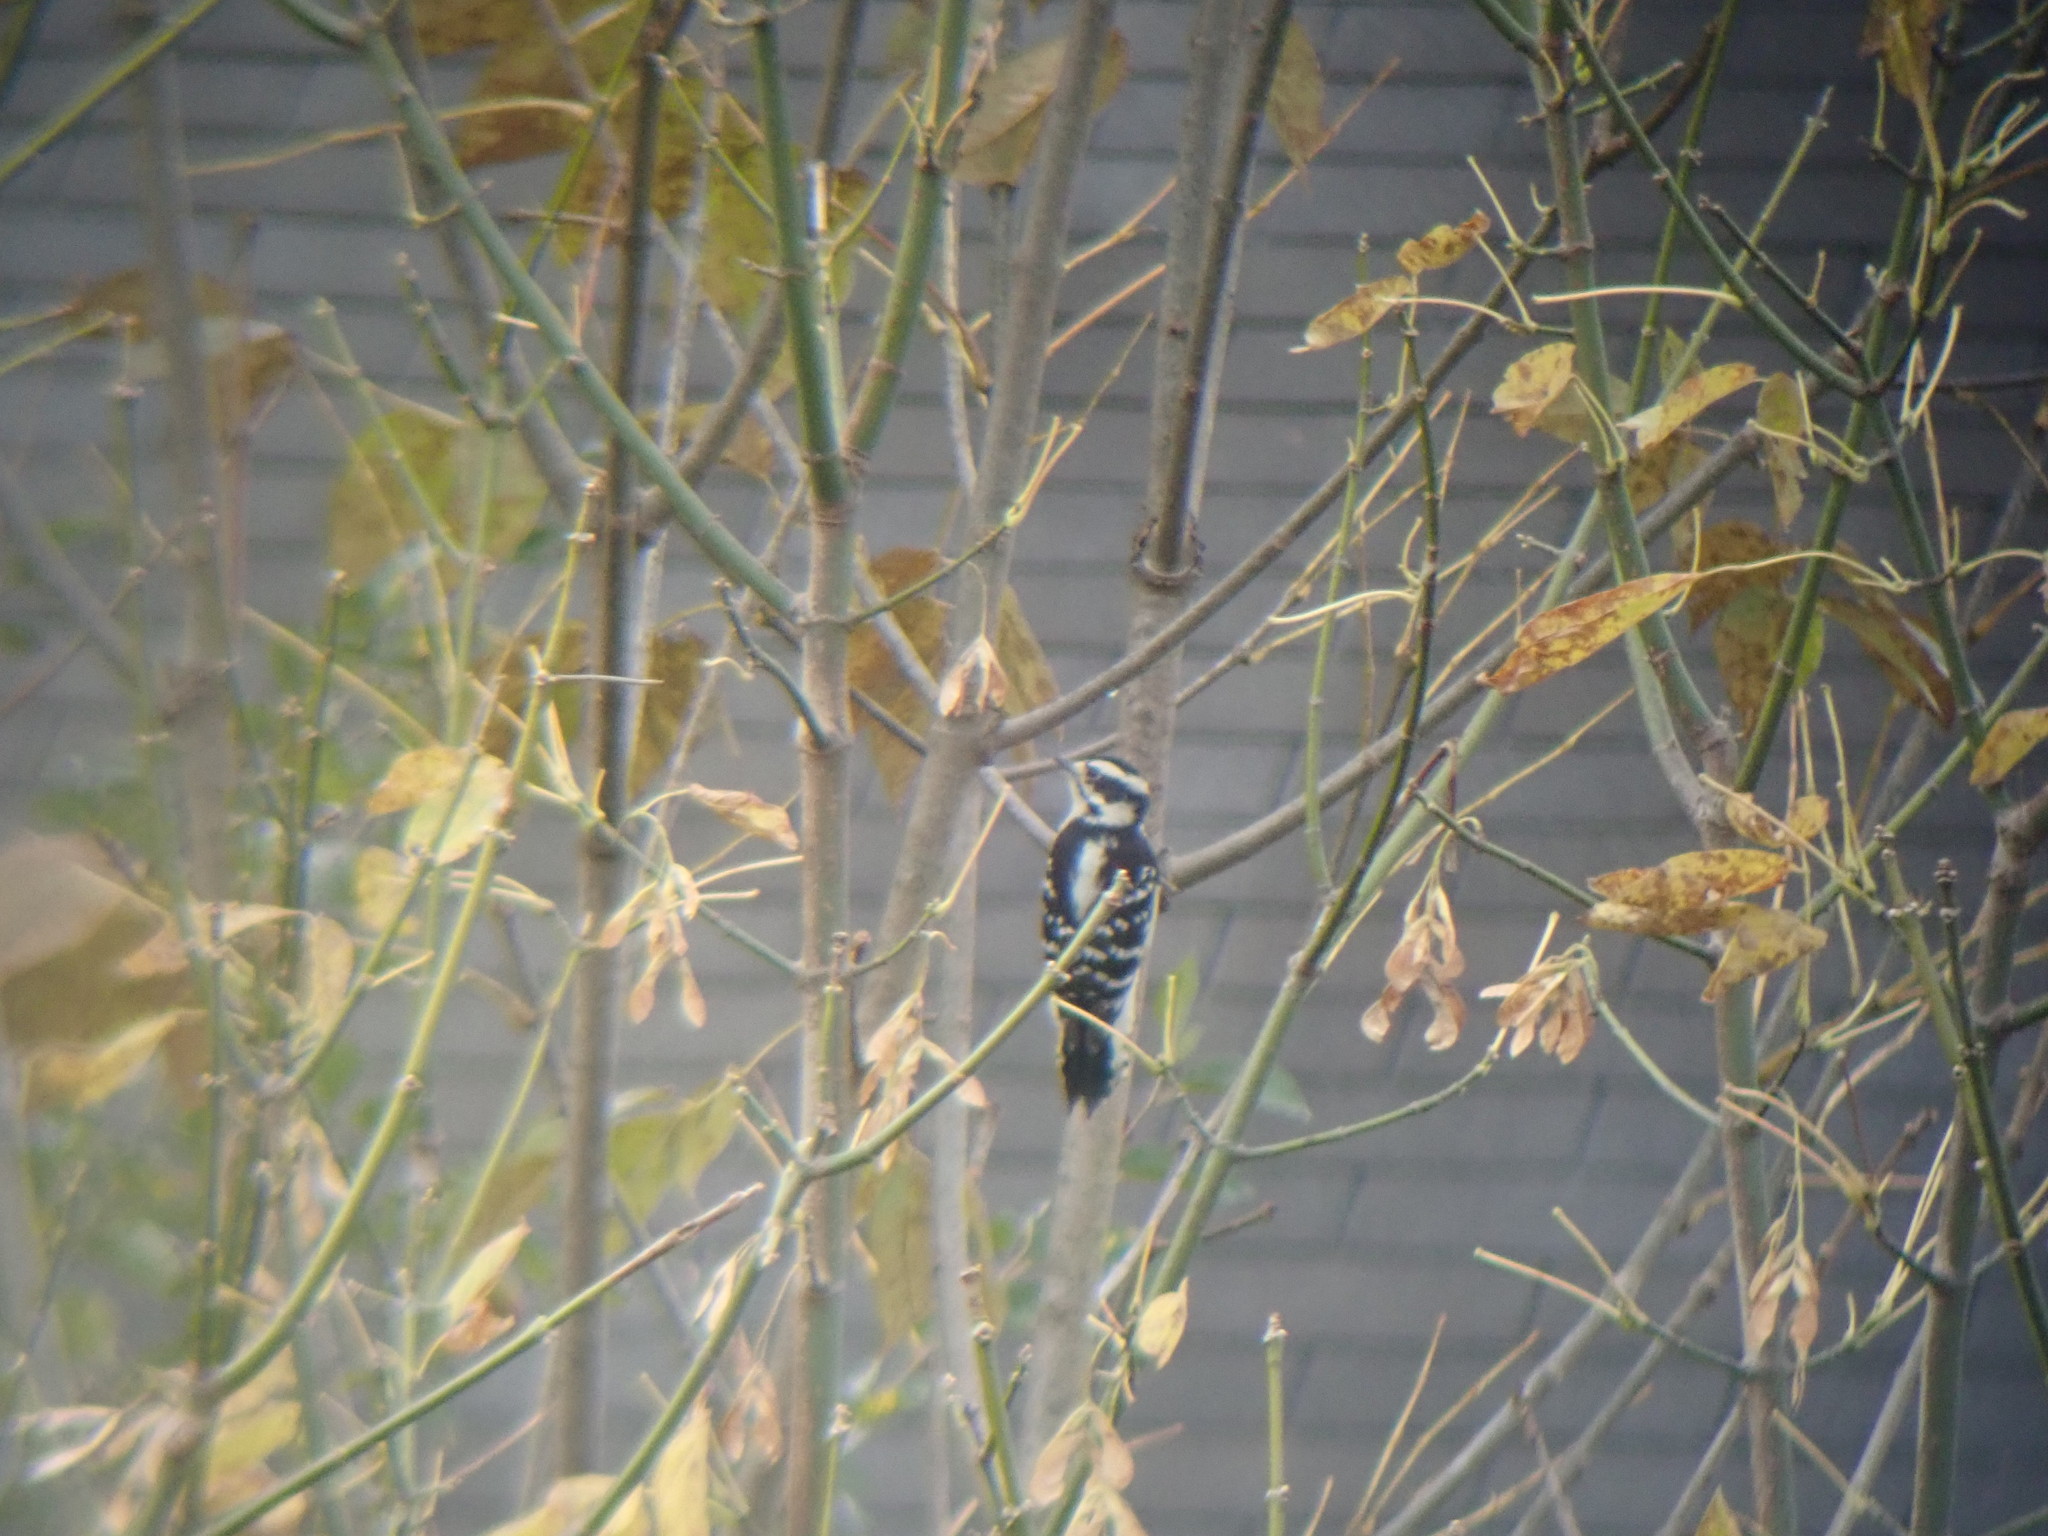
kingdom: Animalia
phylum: Chordata
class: Aves
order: Piciformes
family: Picidae
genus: Dryobates
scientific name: Dryobates pubescens
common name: Downy woodpecker
